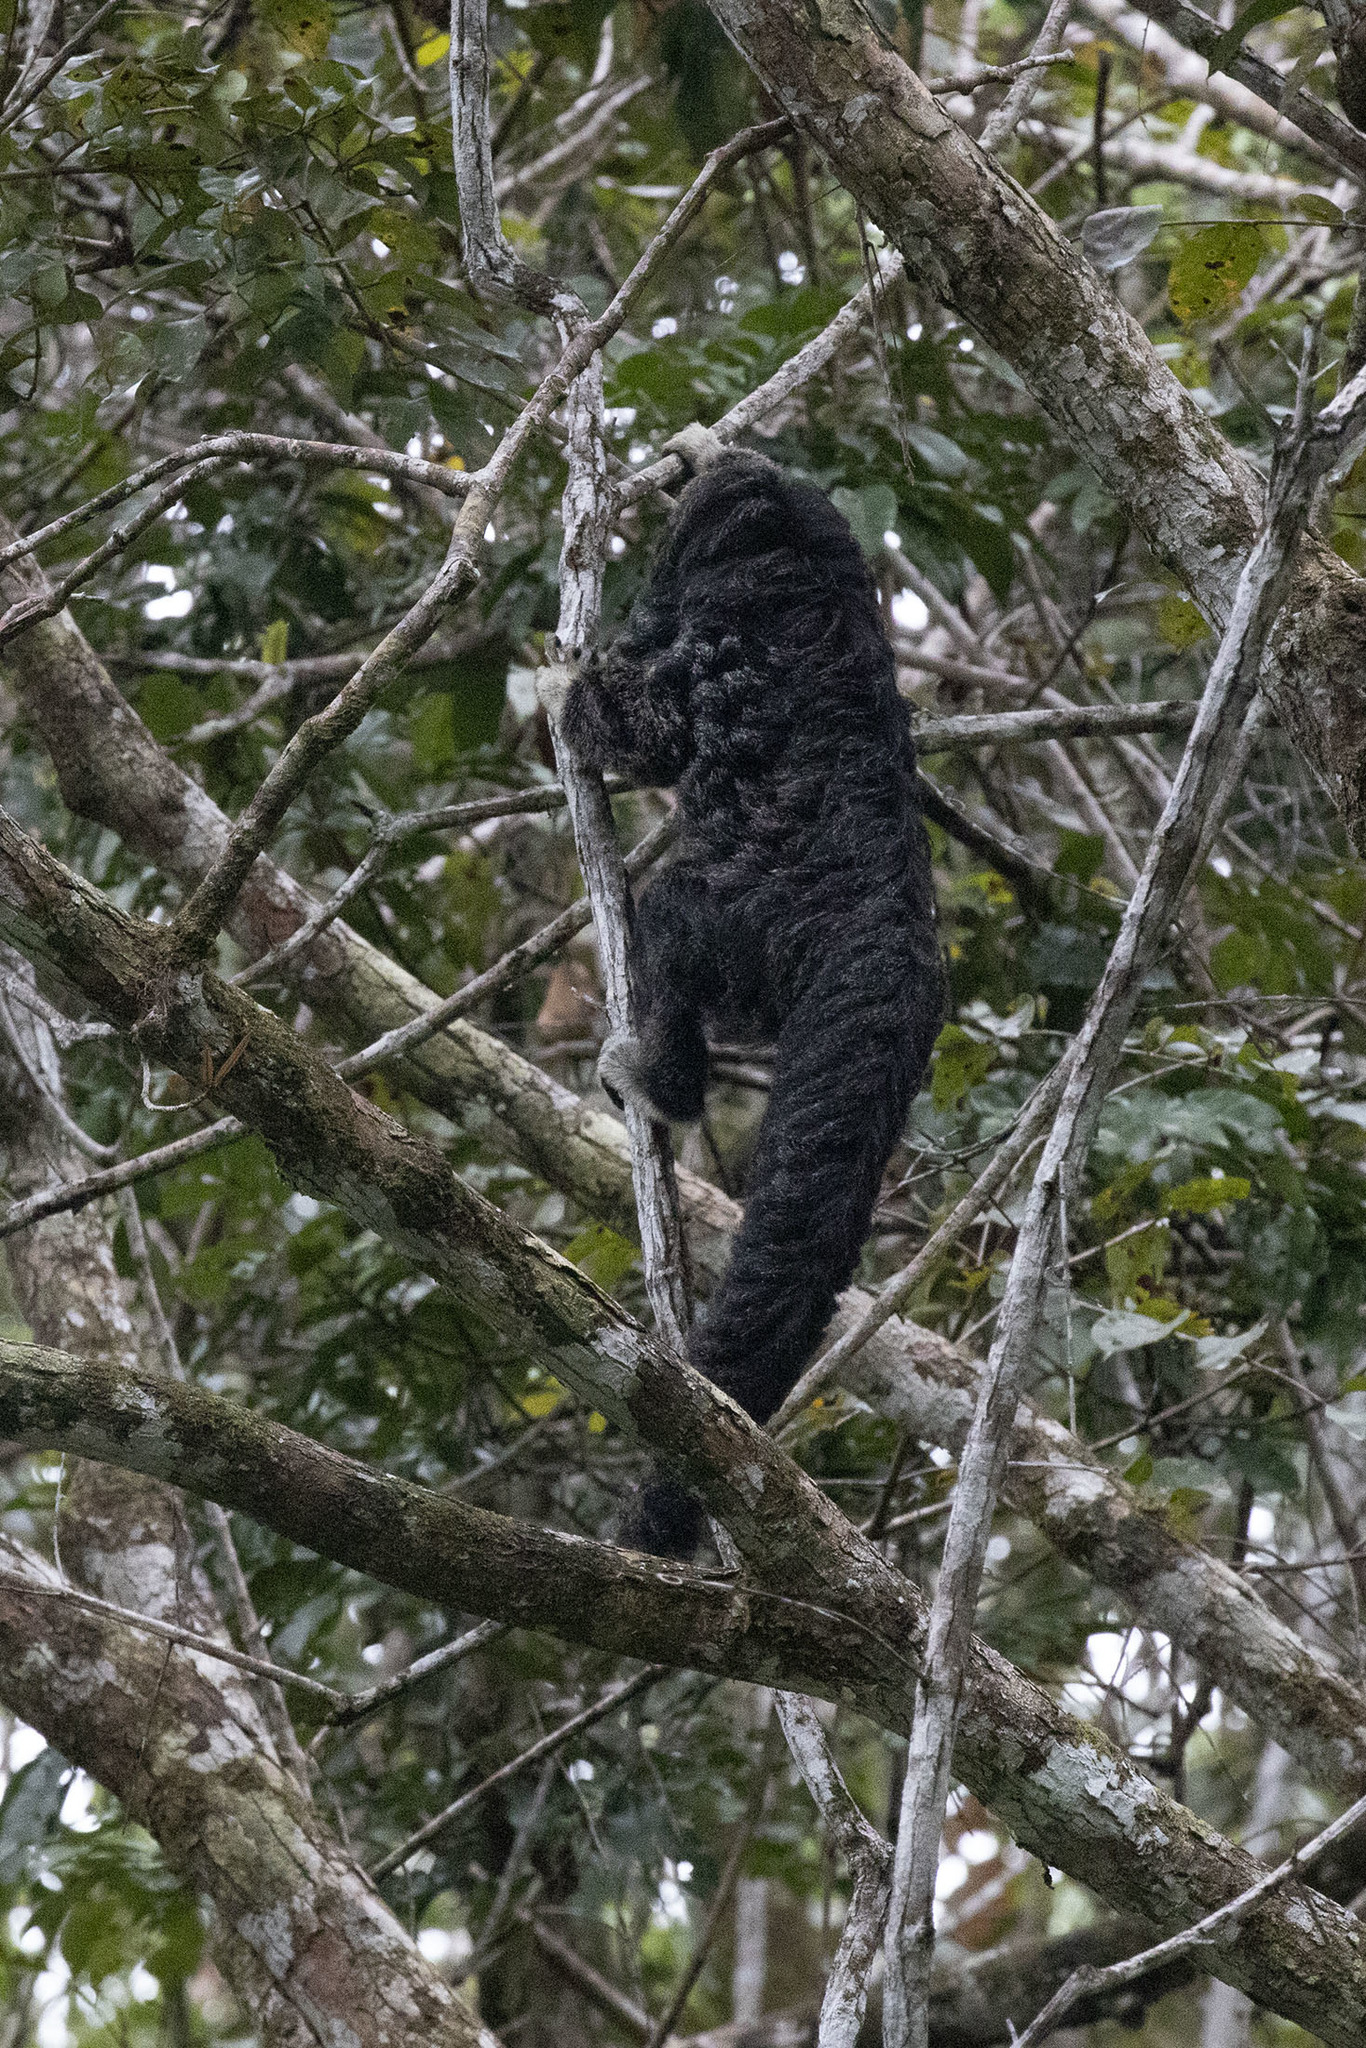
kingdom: Animalia
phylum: Chordata
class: Mammalia
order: Primates
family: Pitheciidae
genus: Pithecia
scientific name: Pithecia milleri
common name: Miller's saki
